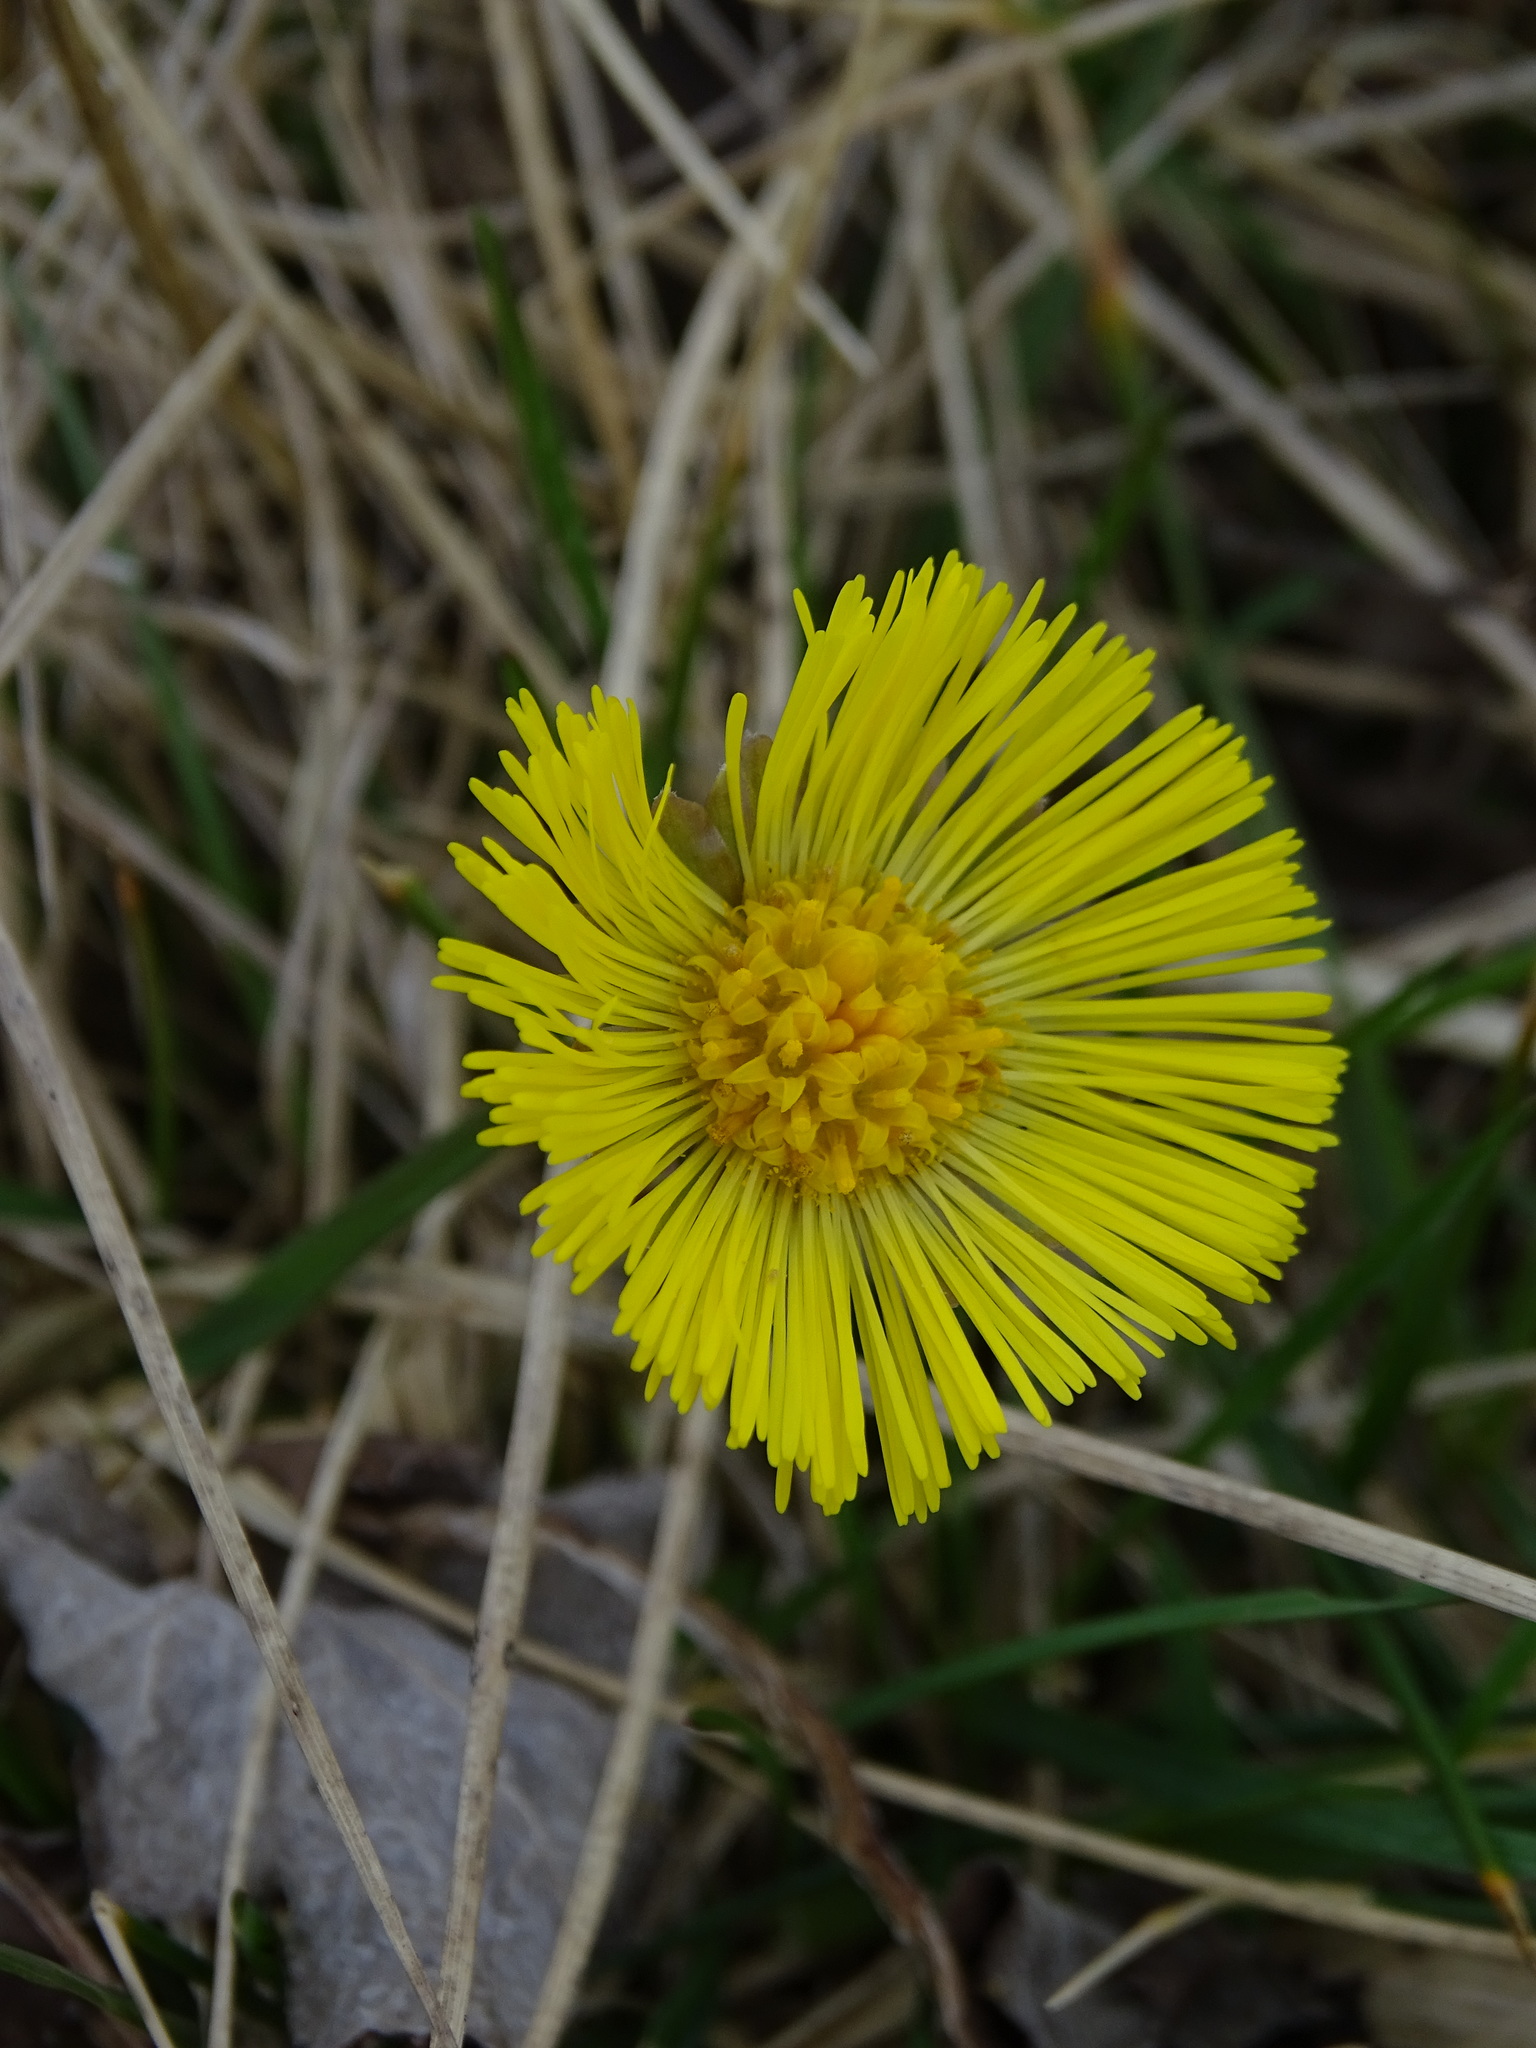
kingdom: Plantae
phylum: Tracheophyta
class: Magnoliopsida
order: Asterales
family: Asteraceae
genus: Tussilago
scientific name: Tussilago farfara
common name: Coltsfoot
